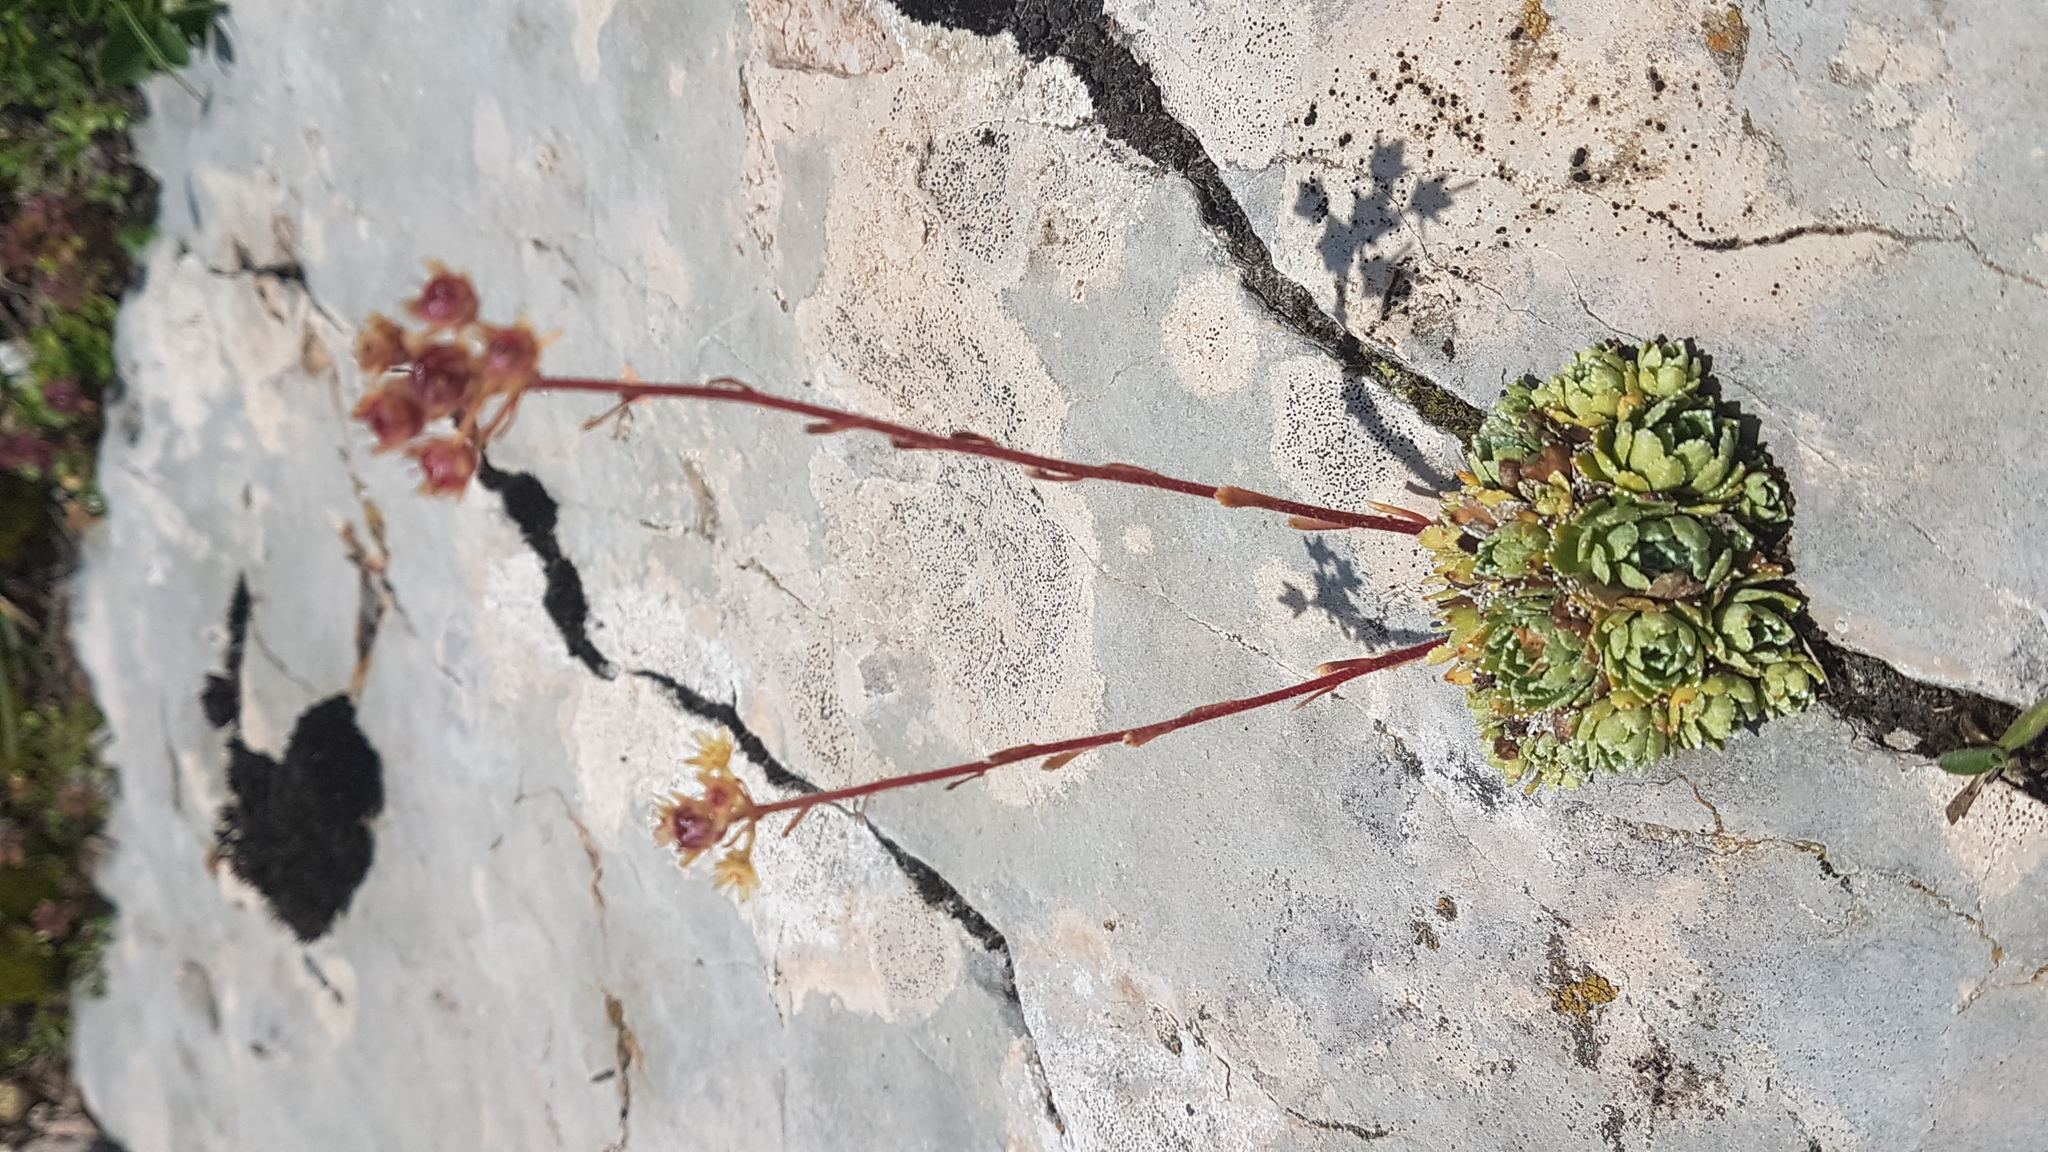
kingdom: Plantae
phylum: Tracheophyta
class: Magnoliopsida
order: Saxifragales
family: Saxifragaceae
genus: Saxifraga
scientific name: Saxifraga paniculata
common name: Livelong saxifrage
